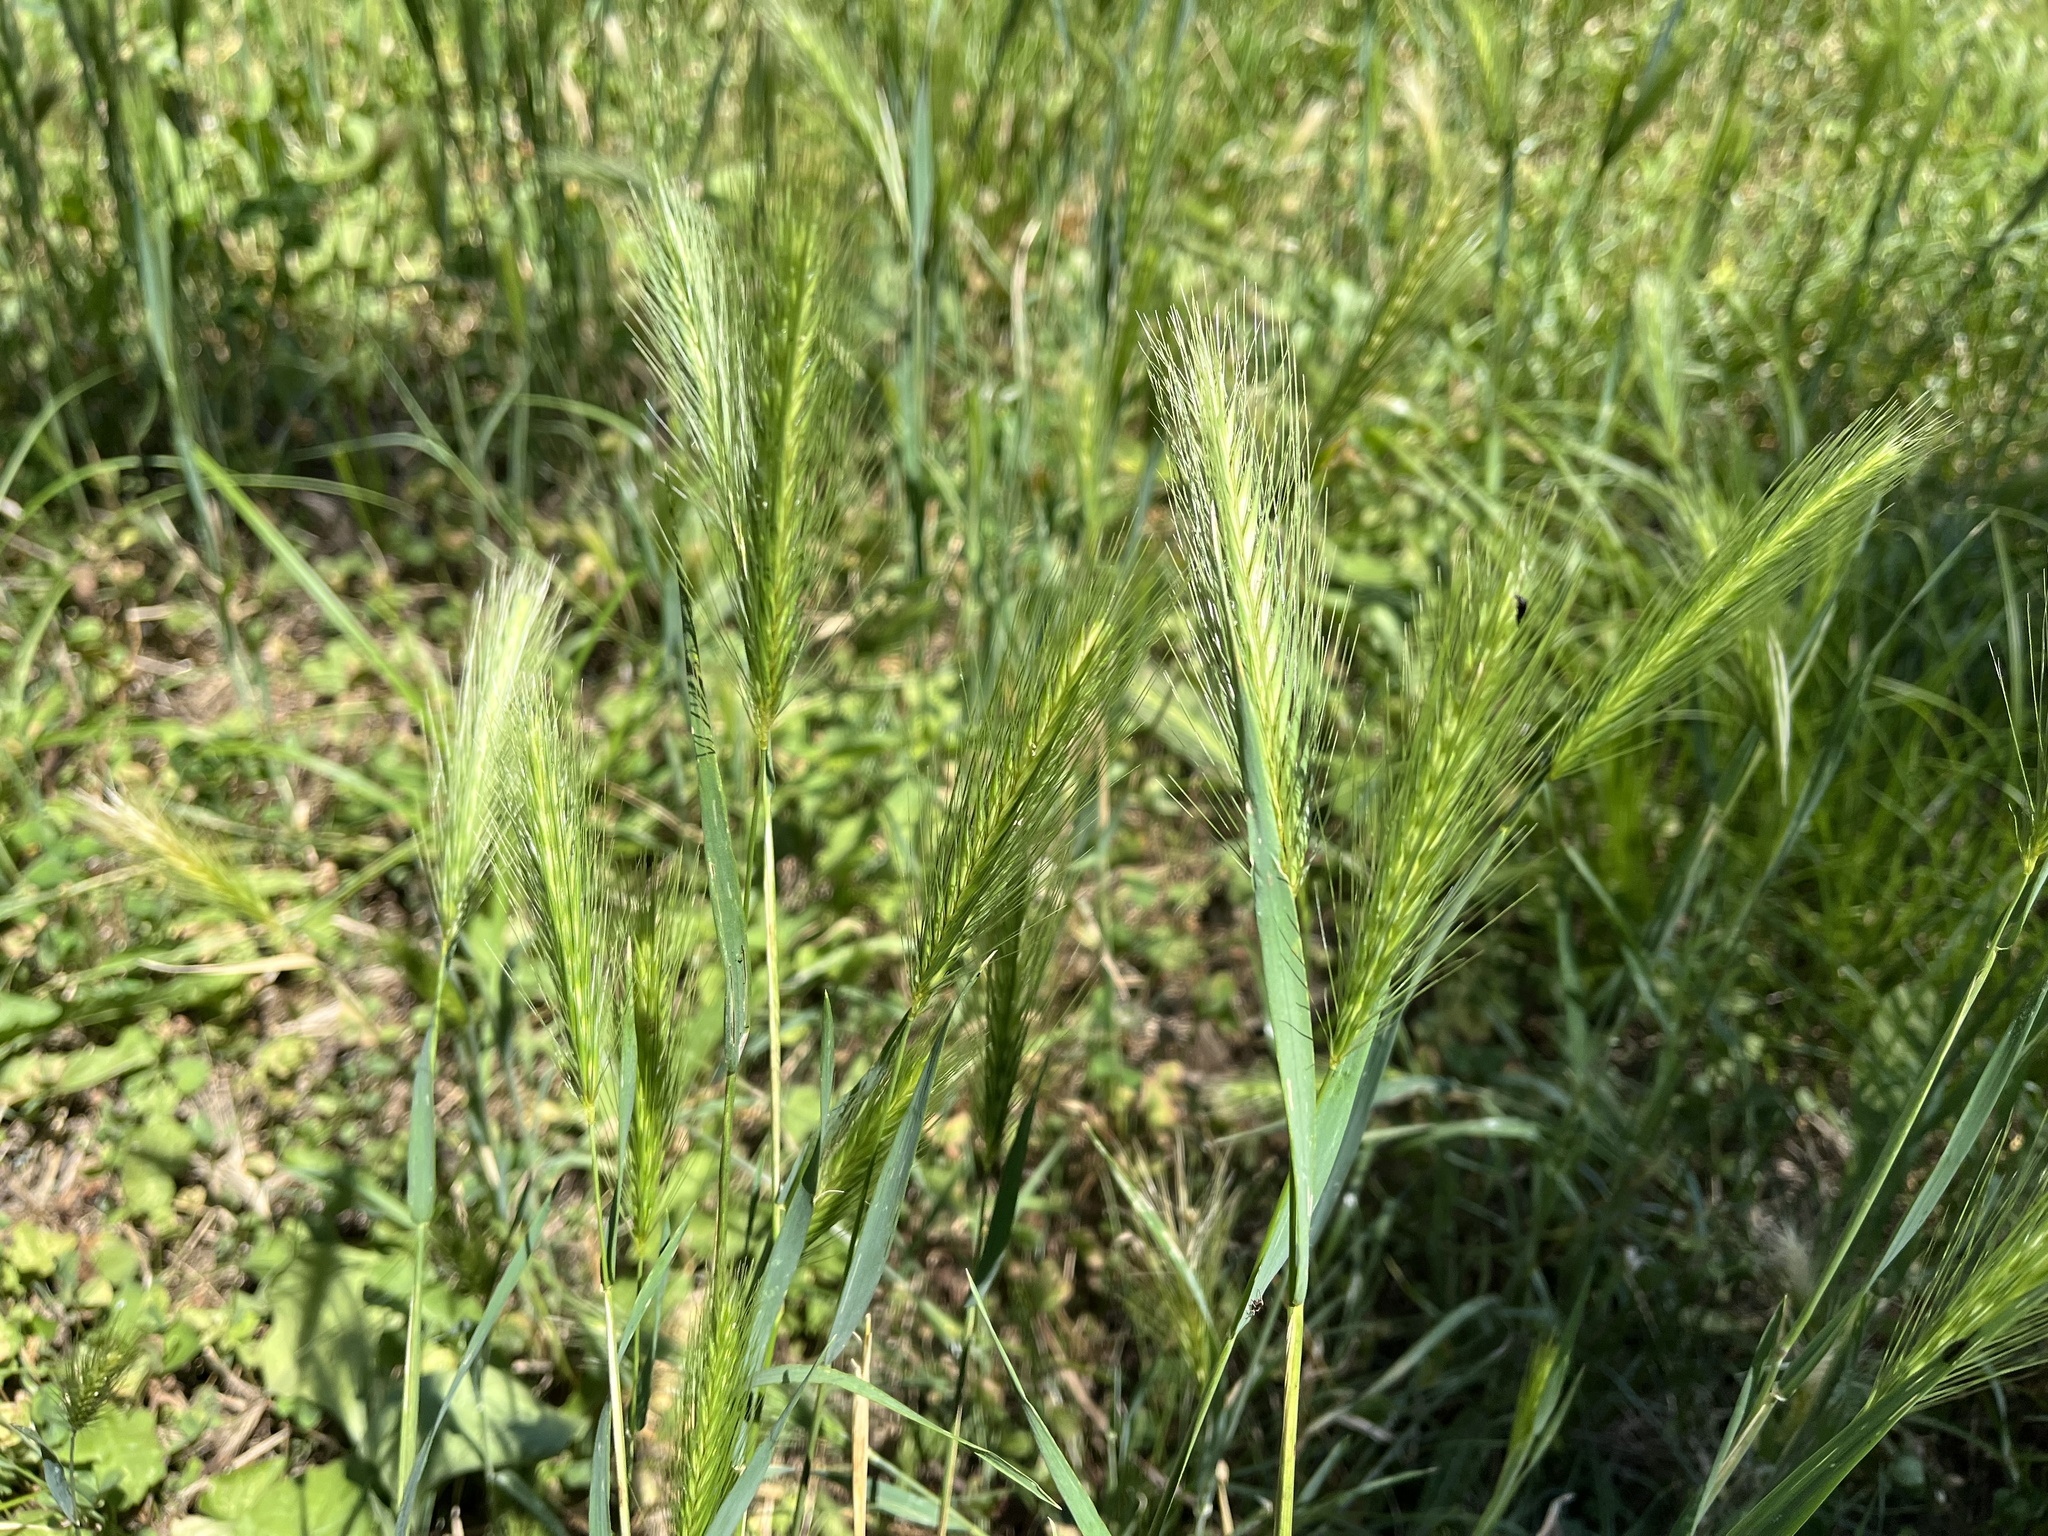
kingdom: Plantae
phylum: Tracheophyta
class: Liliopsida
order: Poales
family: Poaceae
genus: Hordeum
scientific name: Hordeum murinum
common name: Wall barley
